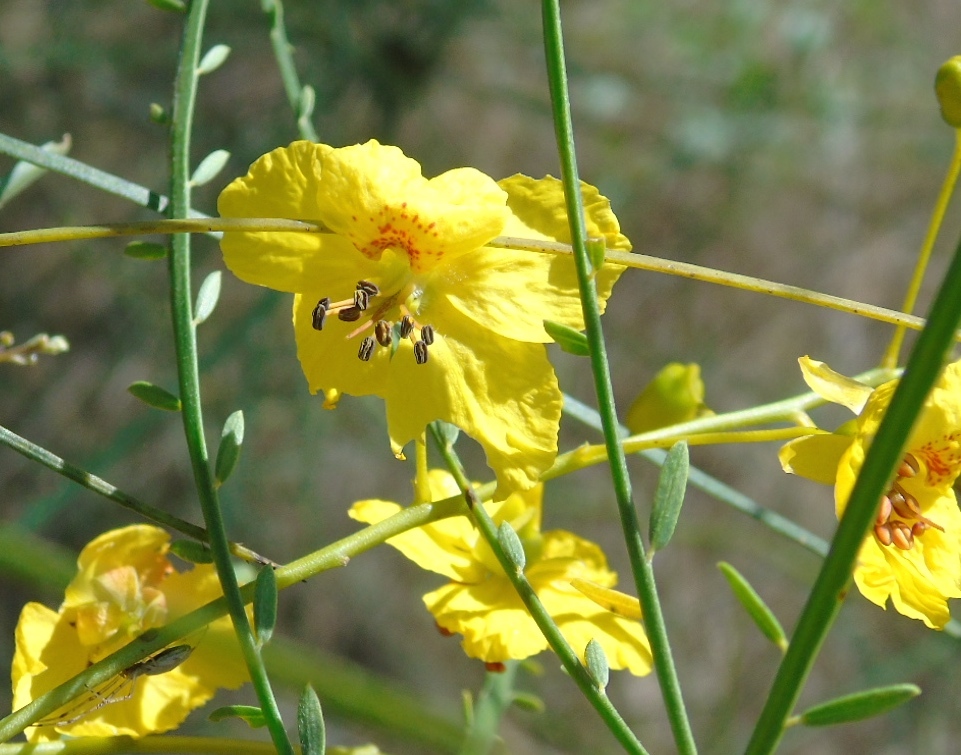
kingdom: Plantae
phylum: Tracheophyta
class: Magnoliopsida
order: Fabales
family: Fabaceae
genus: Parkinsonia
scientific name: Parkinsonia aculeata
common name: Jerusalem thorn
